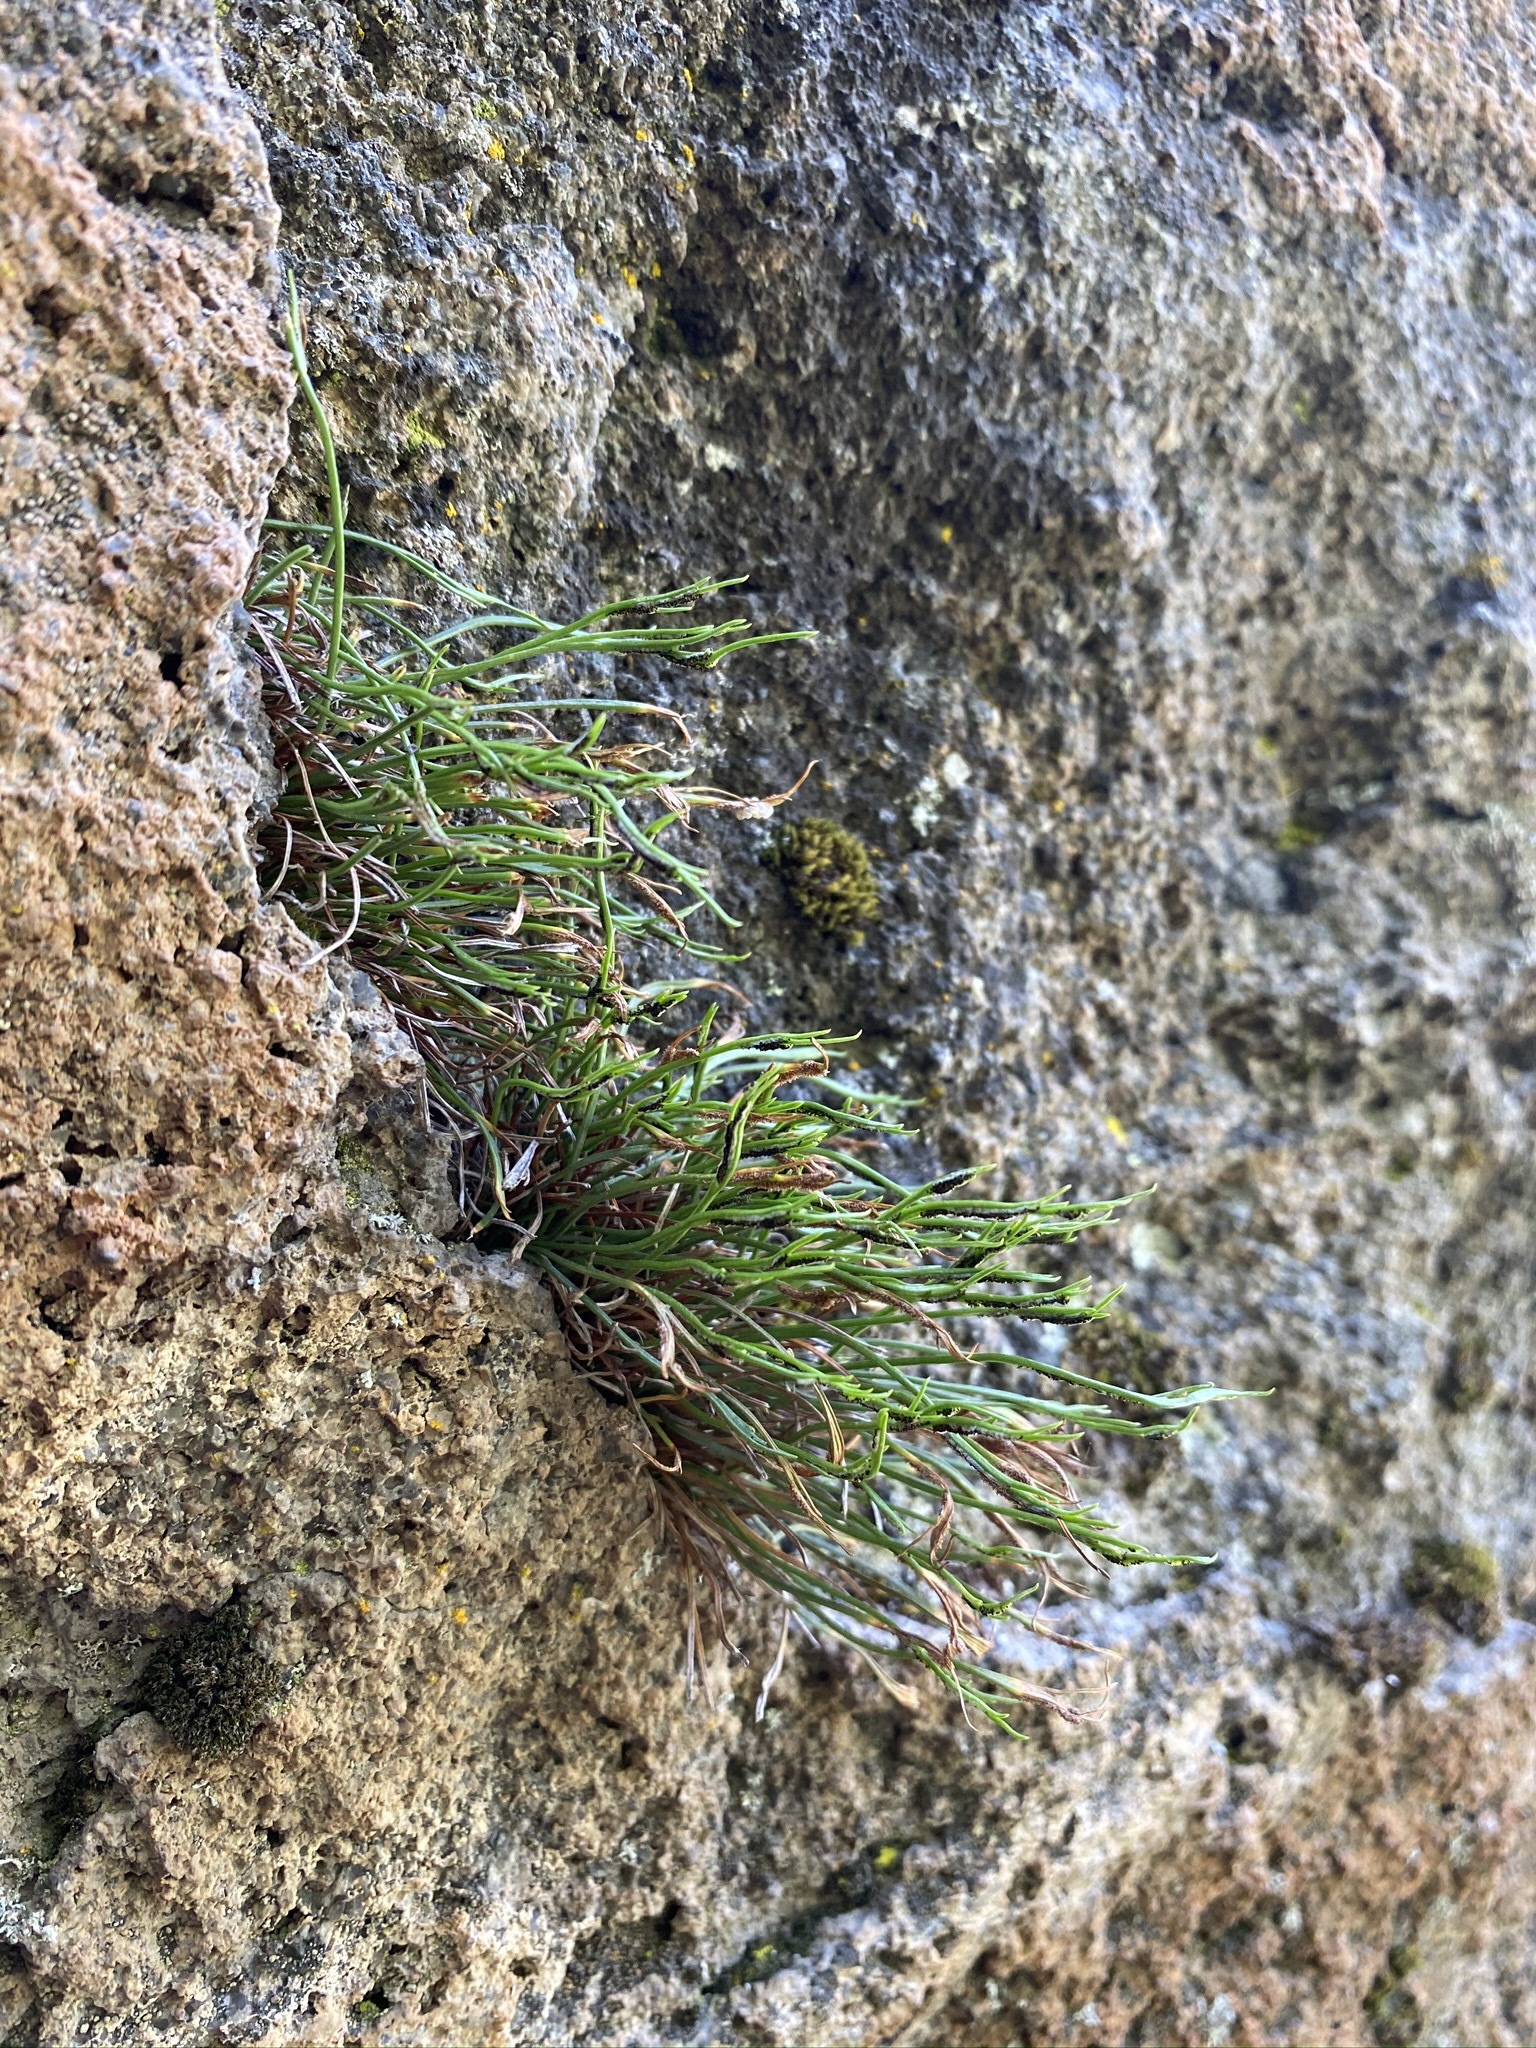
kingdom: Plantae
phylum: Tracheophyta
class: Polypodiopsida
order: Polypodiales
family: Aspleniaceae
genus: Asplenium
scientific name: Asplenium septentrionale
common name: Forked spleenwort
